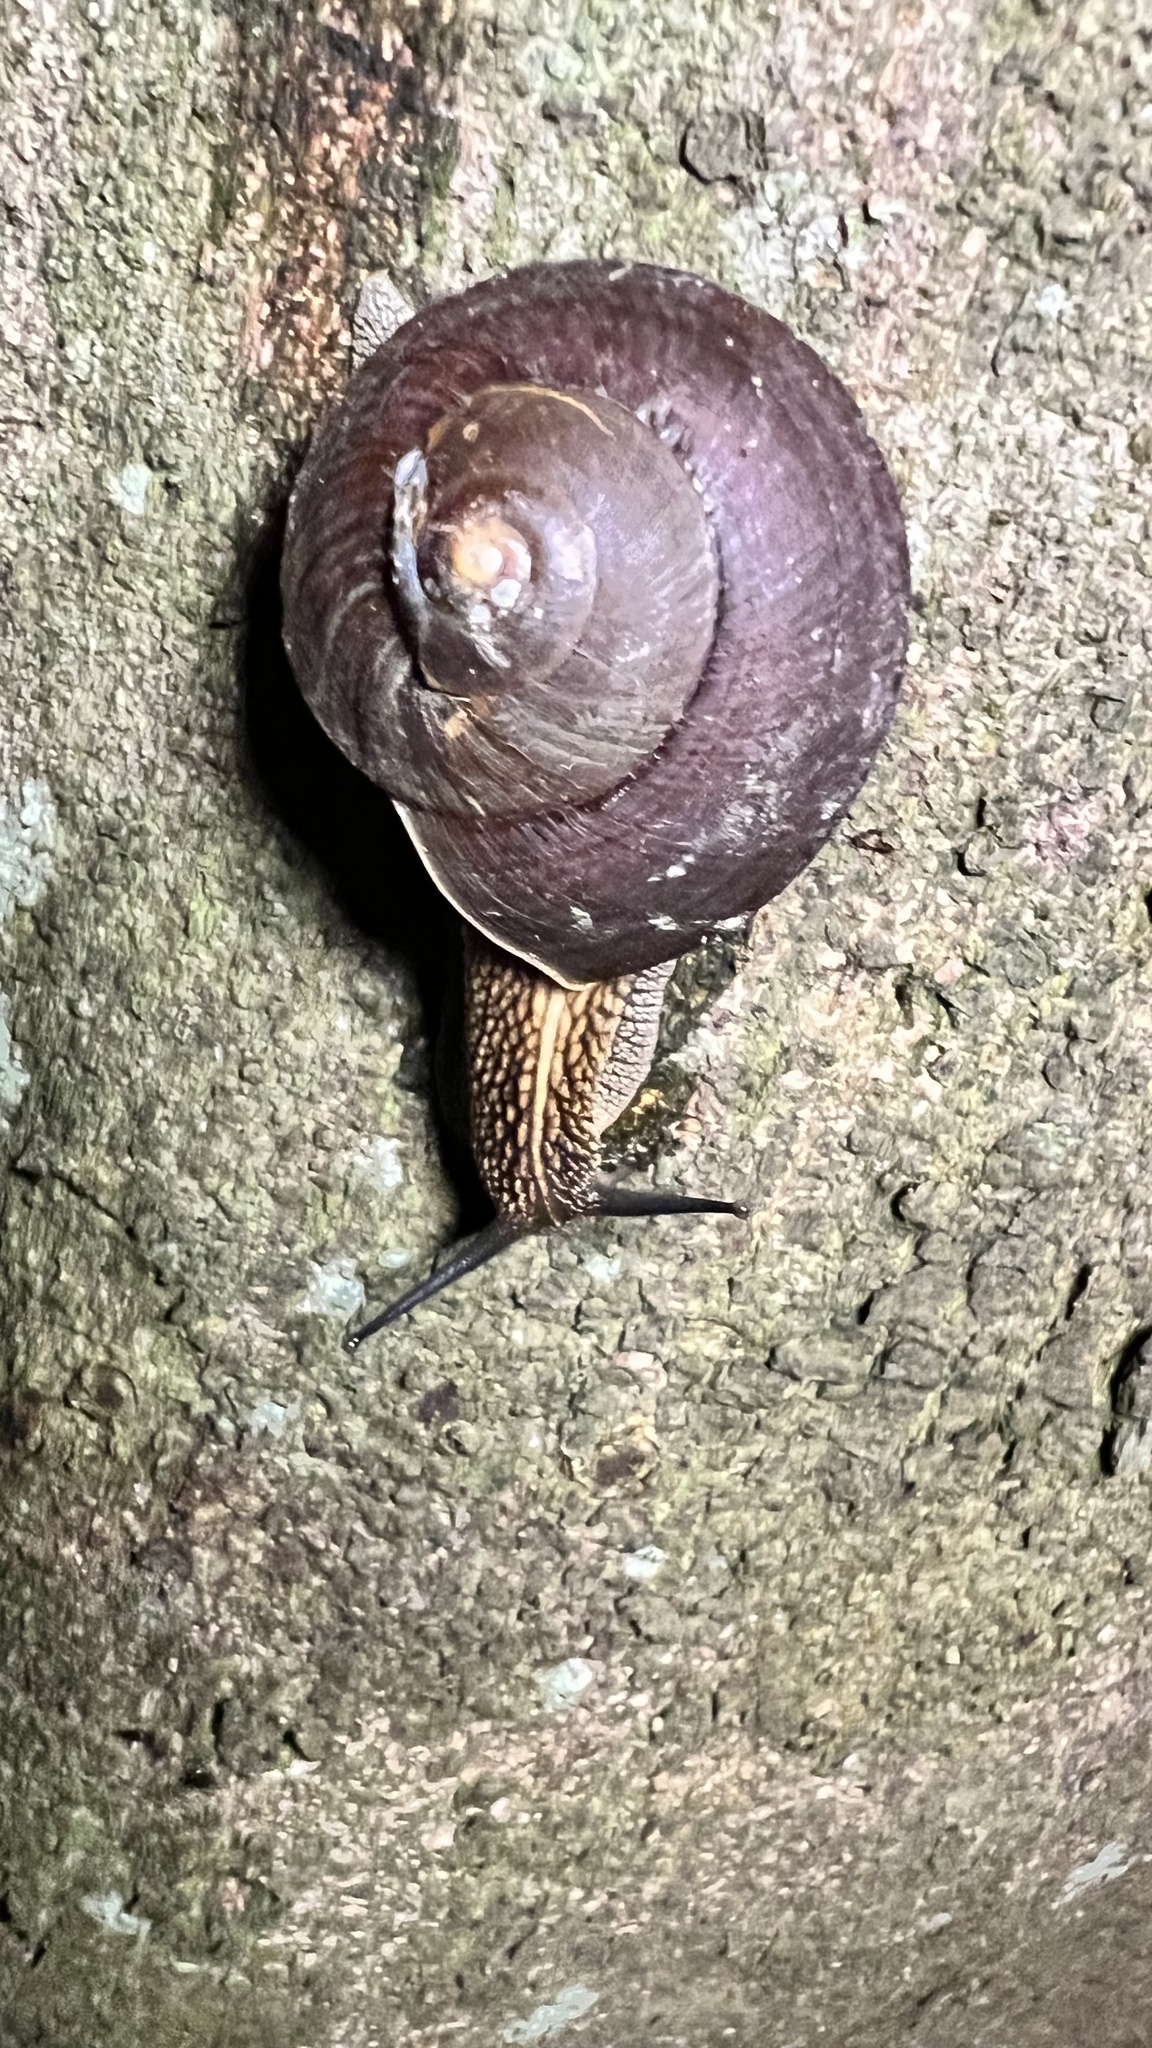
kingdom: Animalia
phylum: Mollusca
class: Gastropoda
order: Stylommatophora
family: Camaenidae
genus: Nesiohelix
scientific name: Nesiohelix swinhoei
